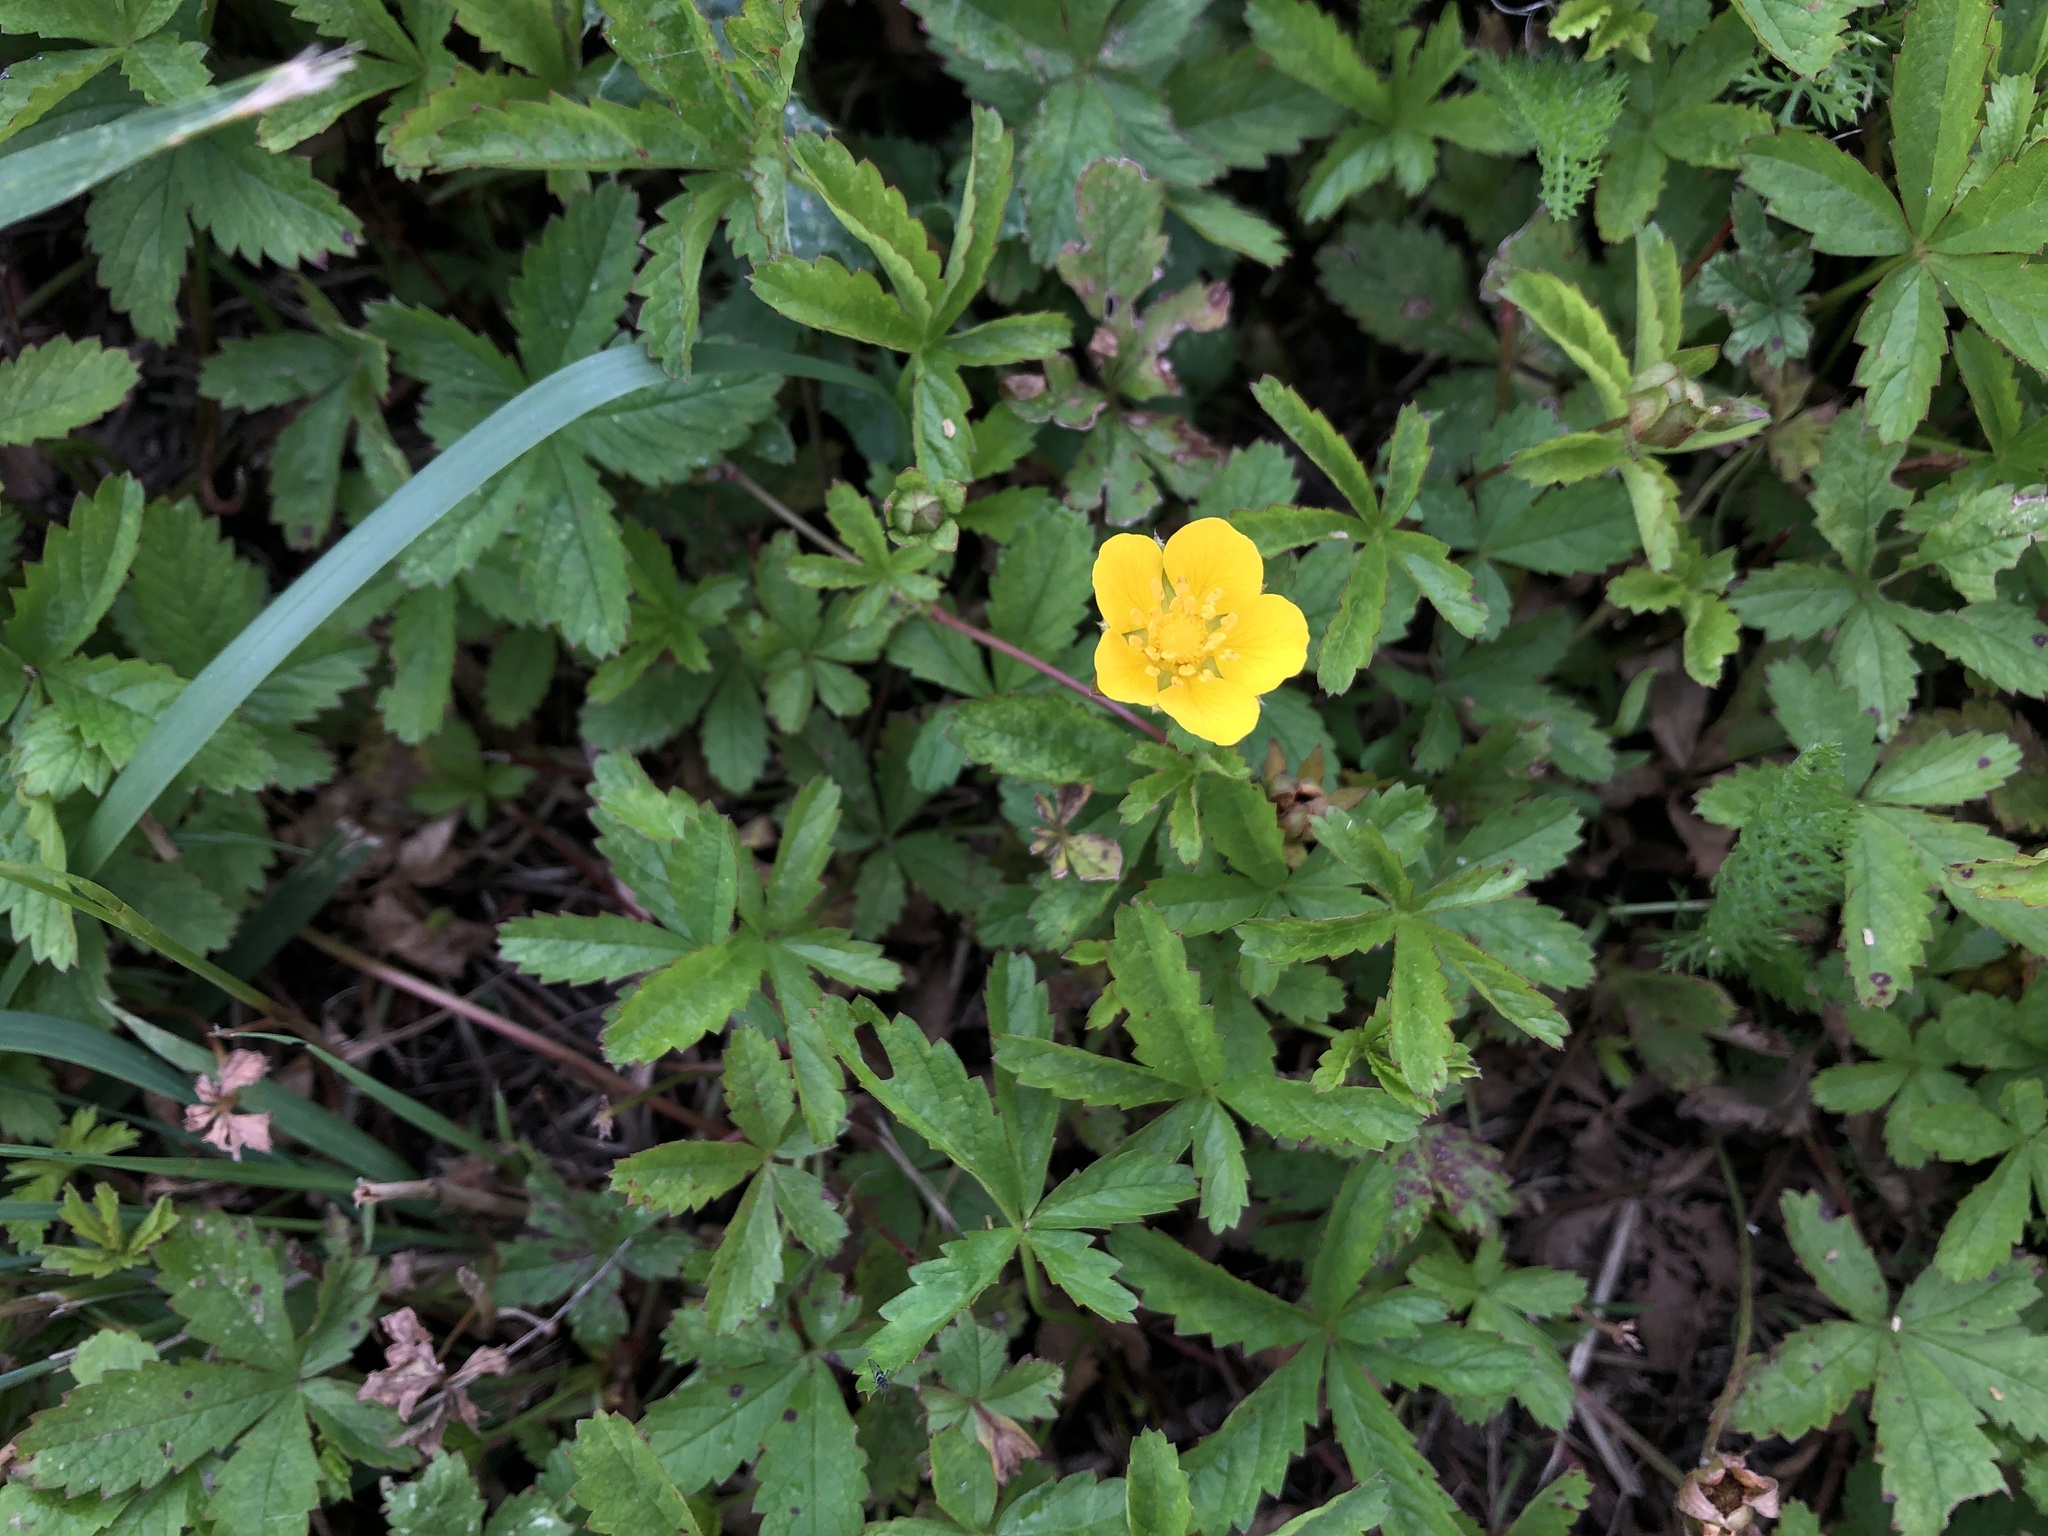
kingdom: Plantae
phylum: Tracheophyta
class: Magnoliopsida
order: Rosales
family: Rosaceae
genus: Potentilla
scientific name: Potentilla reptans
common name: Creeping cinquefoil
